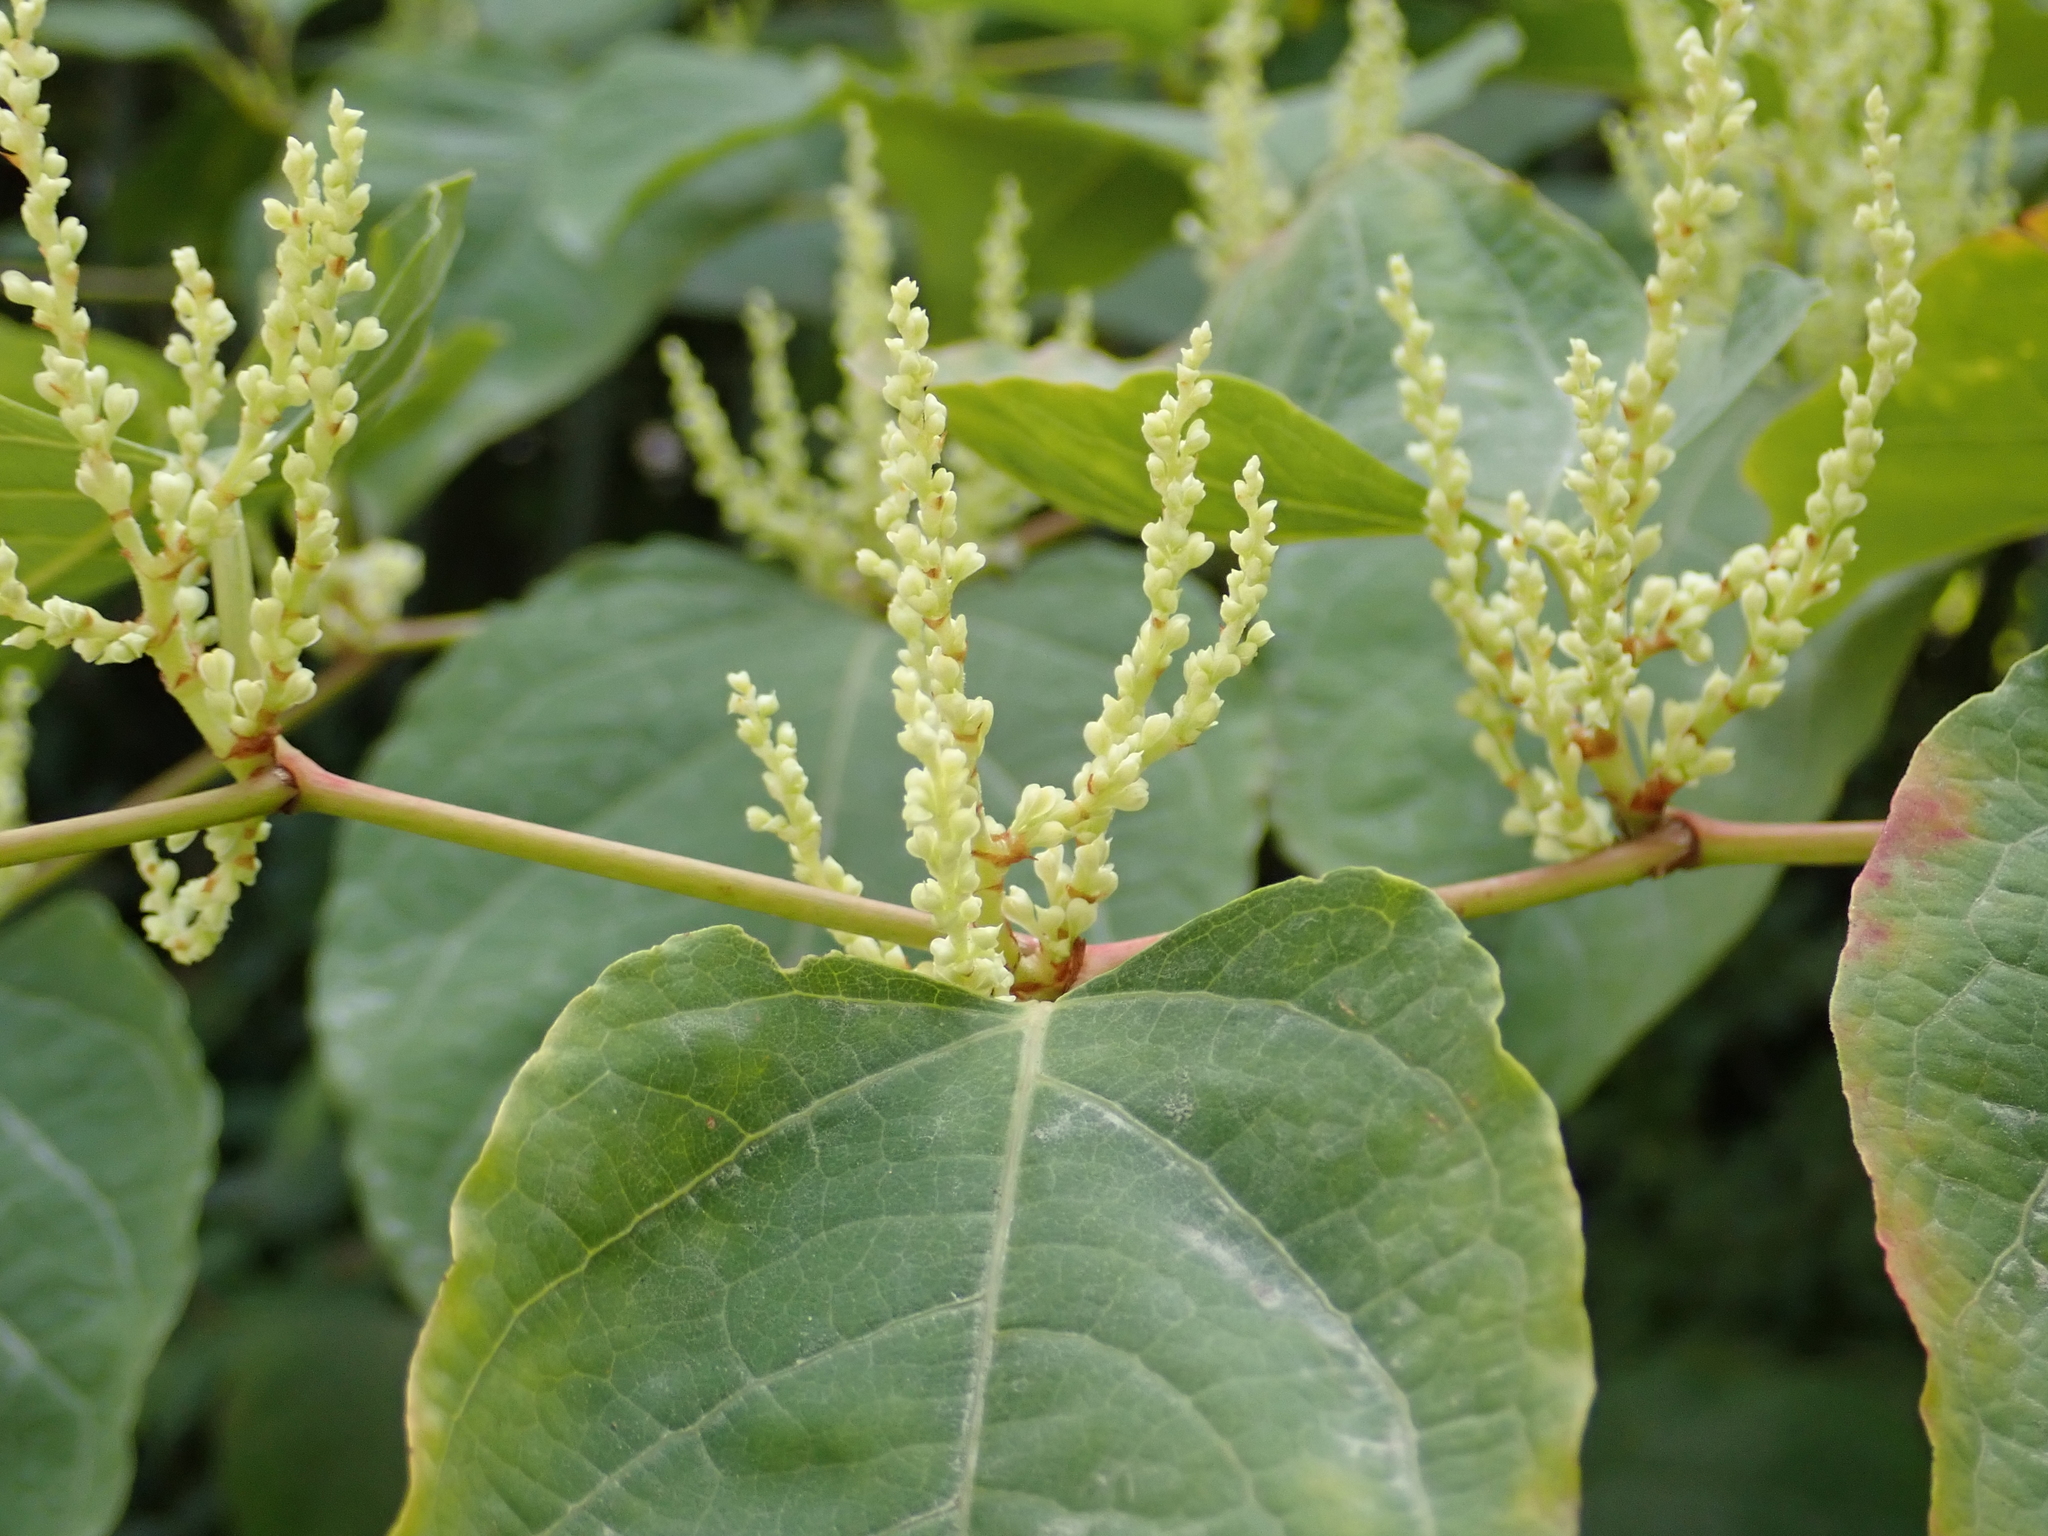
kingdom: Plantae
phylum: Tracheophyta
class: Magnoliopsida
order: Caryophyllales
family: Polygonaceae
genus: Reynoutria
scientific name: Reynoutria bohemica
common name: Bohemian knotweed
